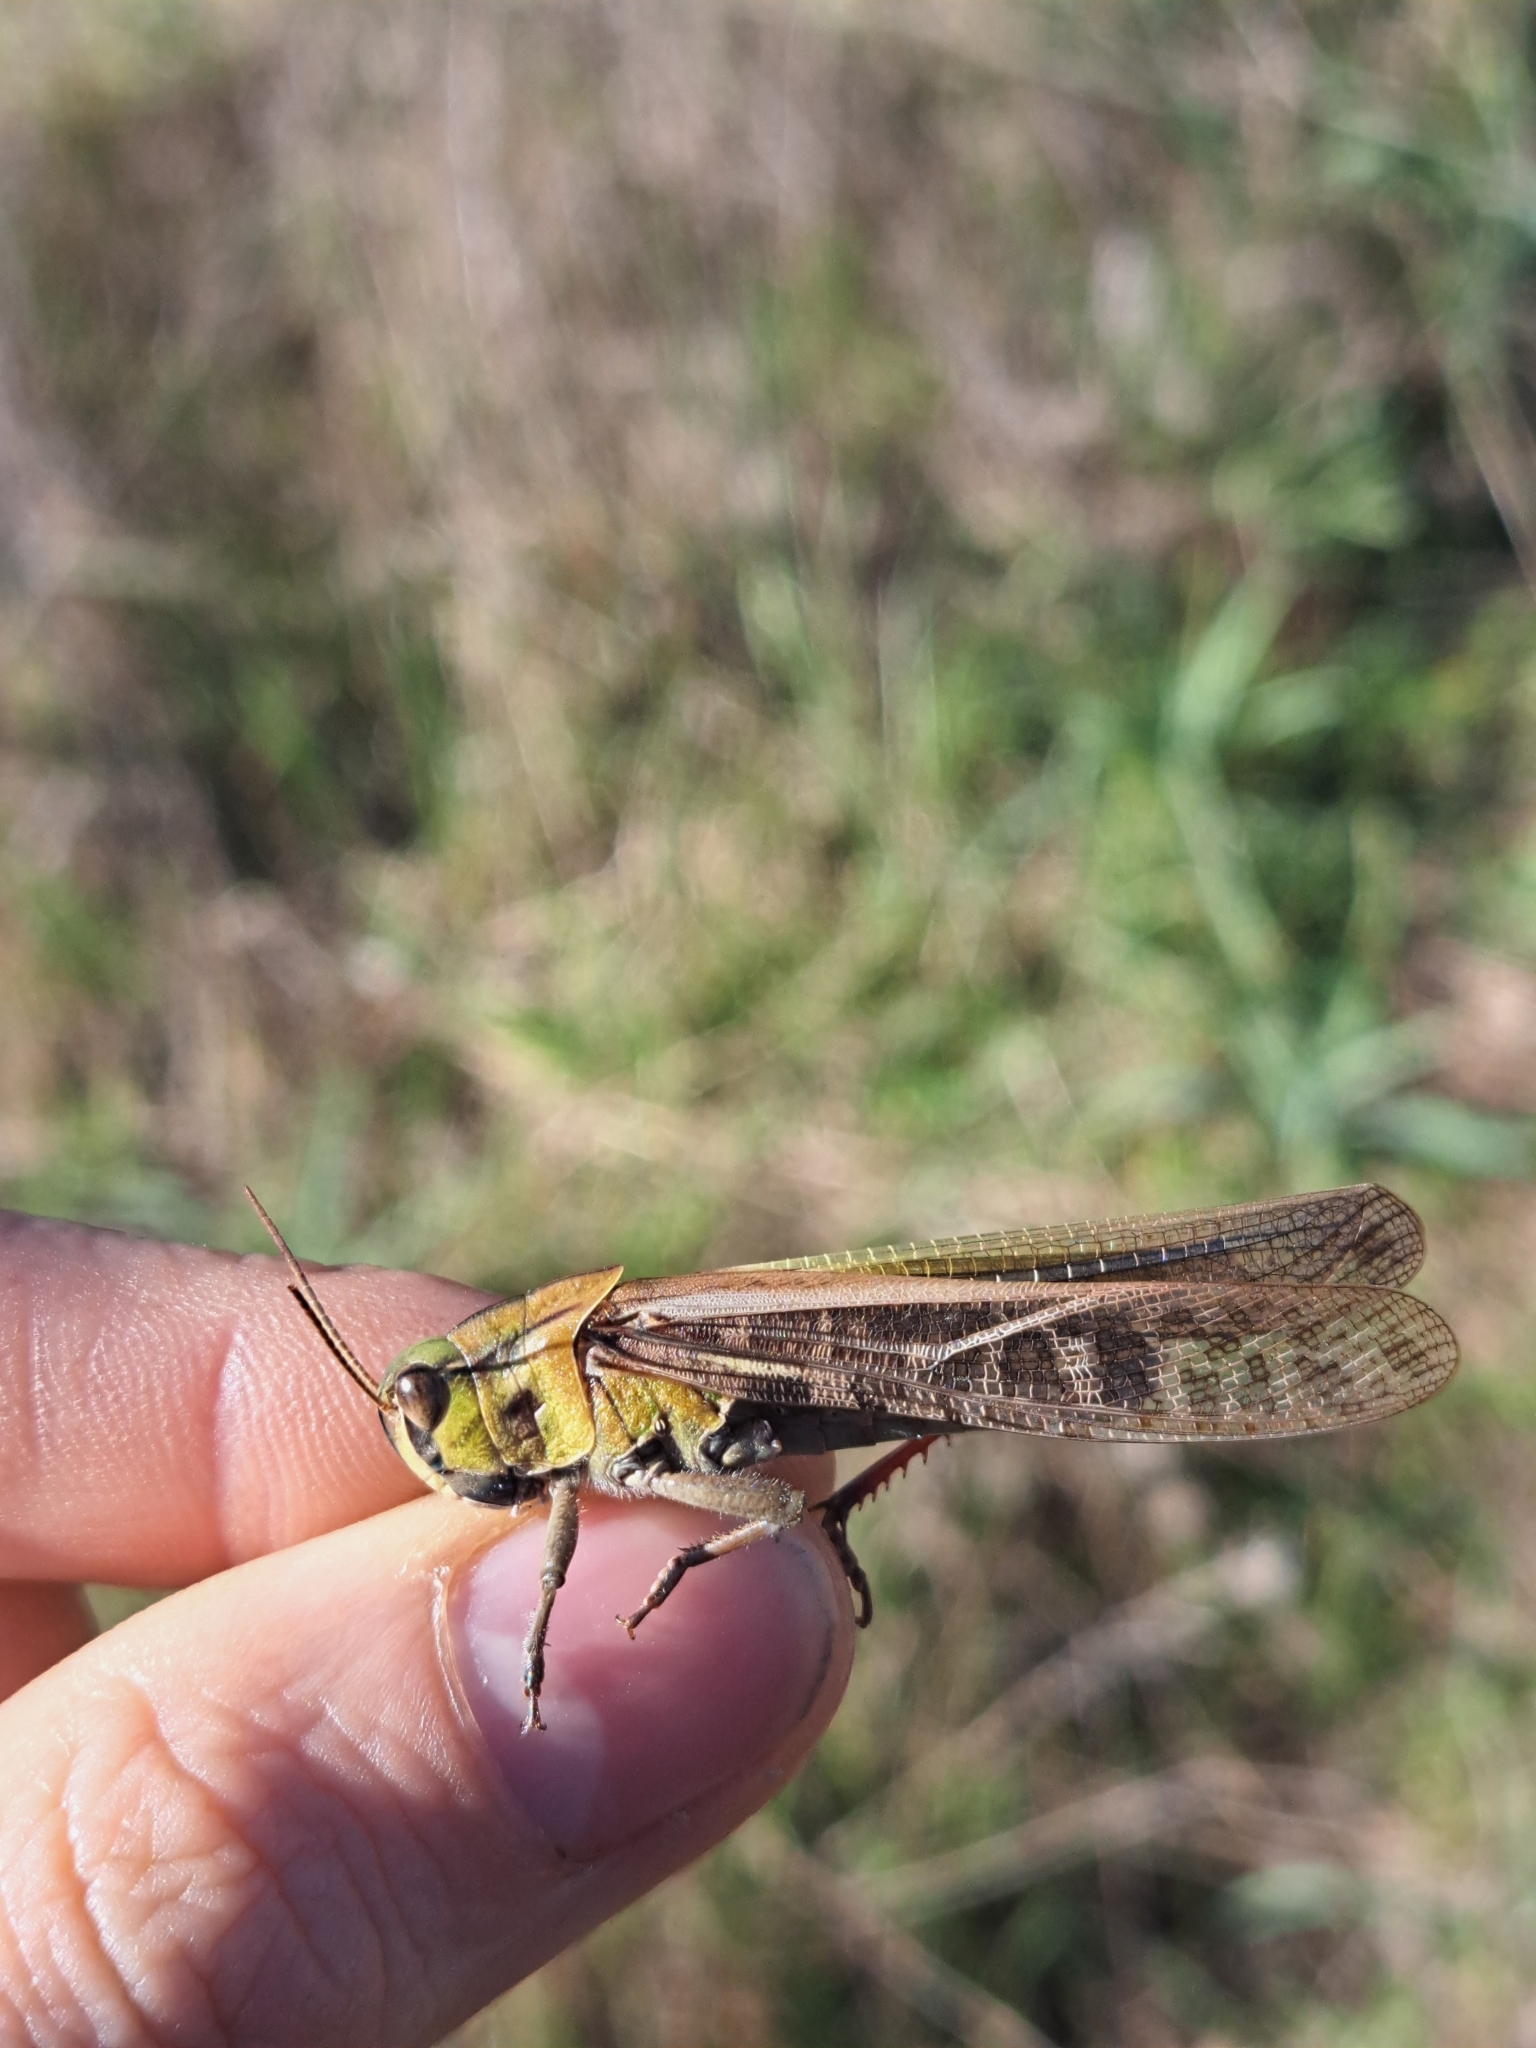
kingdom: Animalia
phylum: Arthropoda
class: Insecta
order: Orthoptera
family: Acrididae
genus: Locusta
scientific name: Locusta migratoria
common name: Migratory locust
